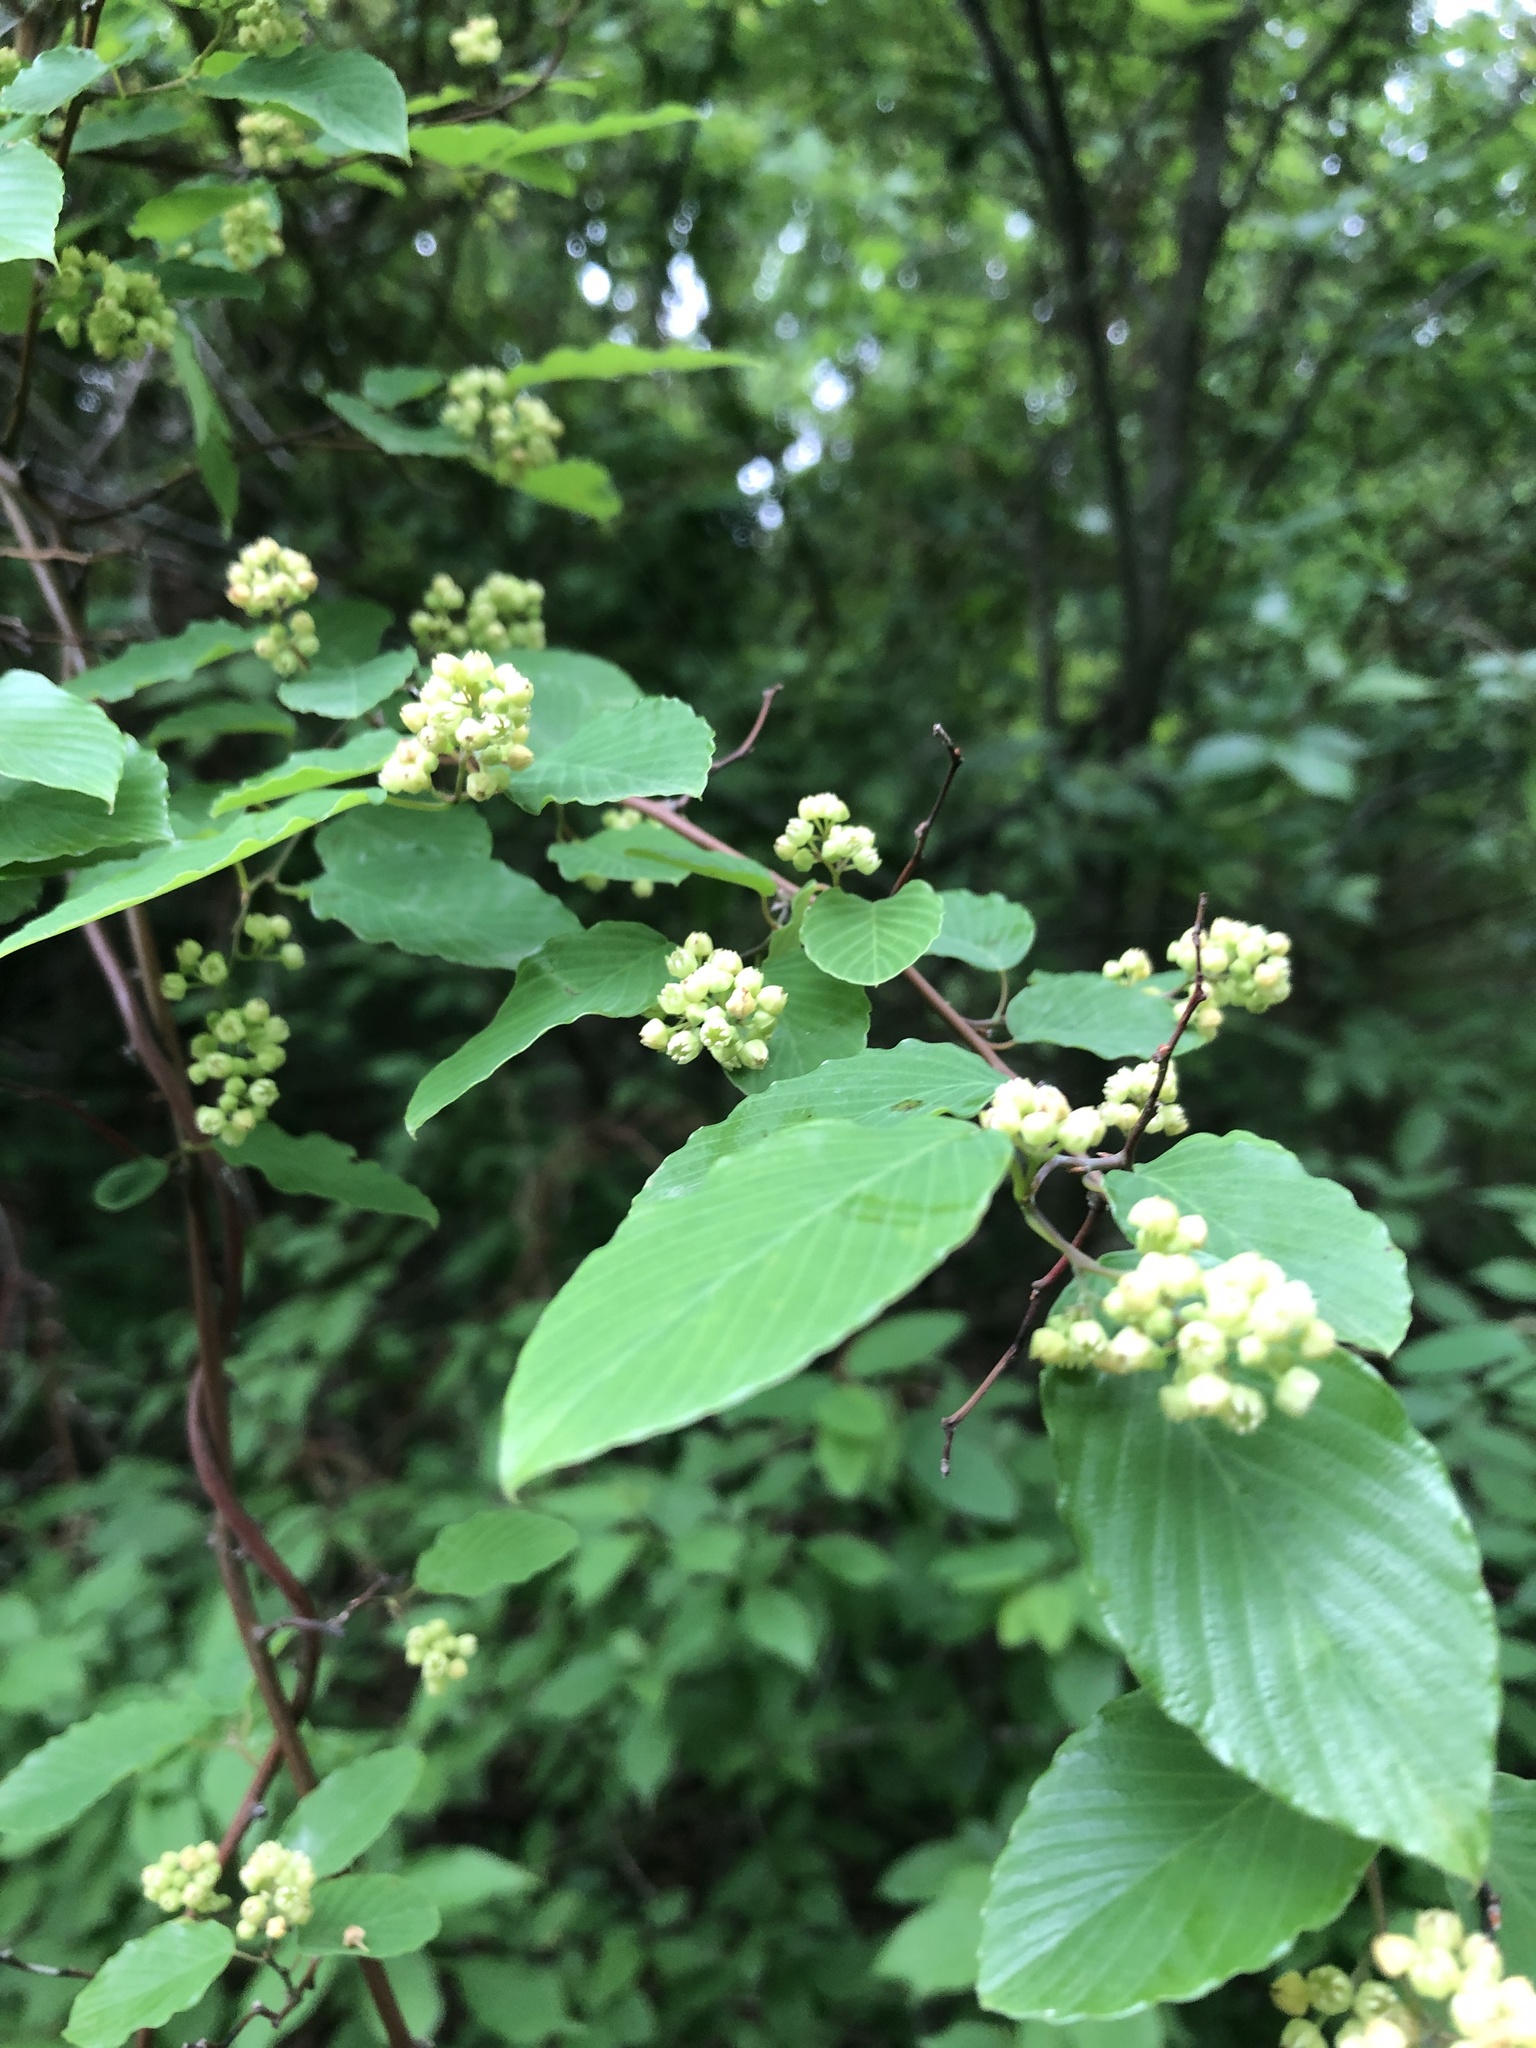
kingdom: Plantae
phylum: Tracheophyta
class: Magnoliopsida
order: Rosales
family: Rhamnaceae
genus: Berchemia
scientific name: Berchemia scandens
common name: Supplejack
